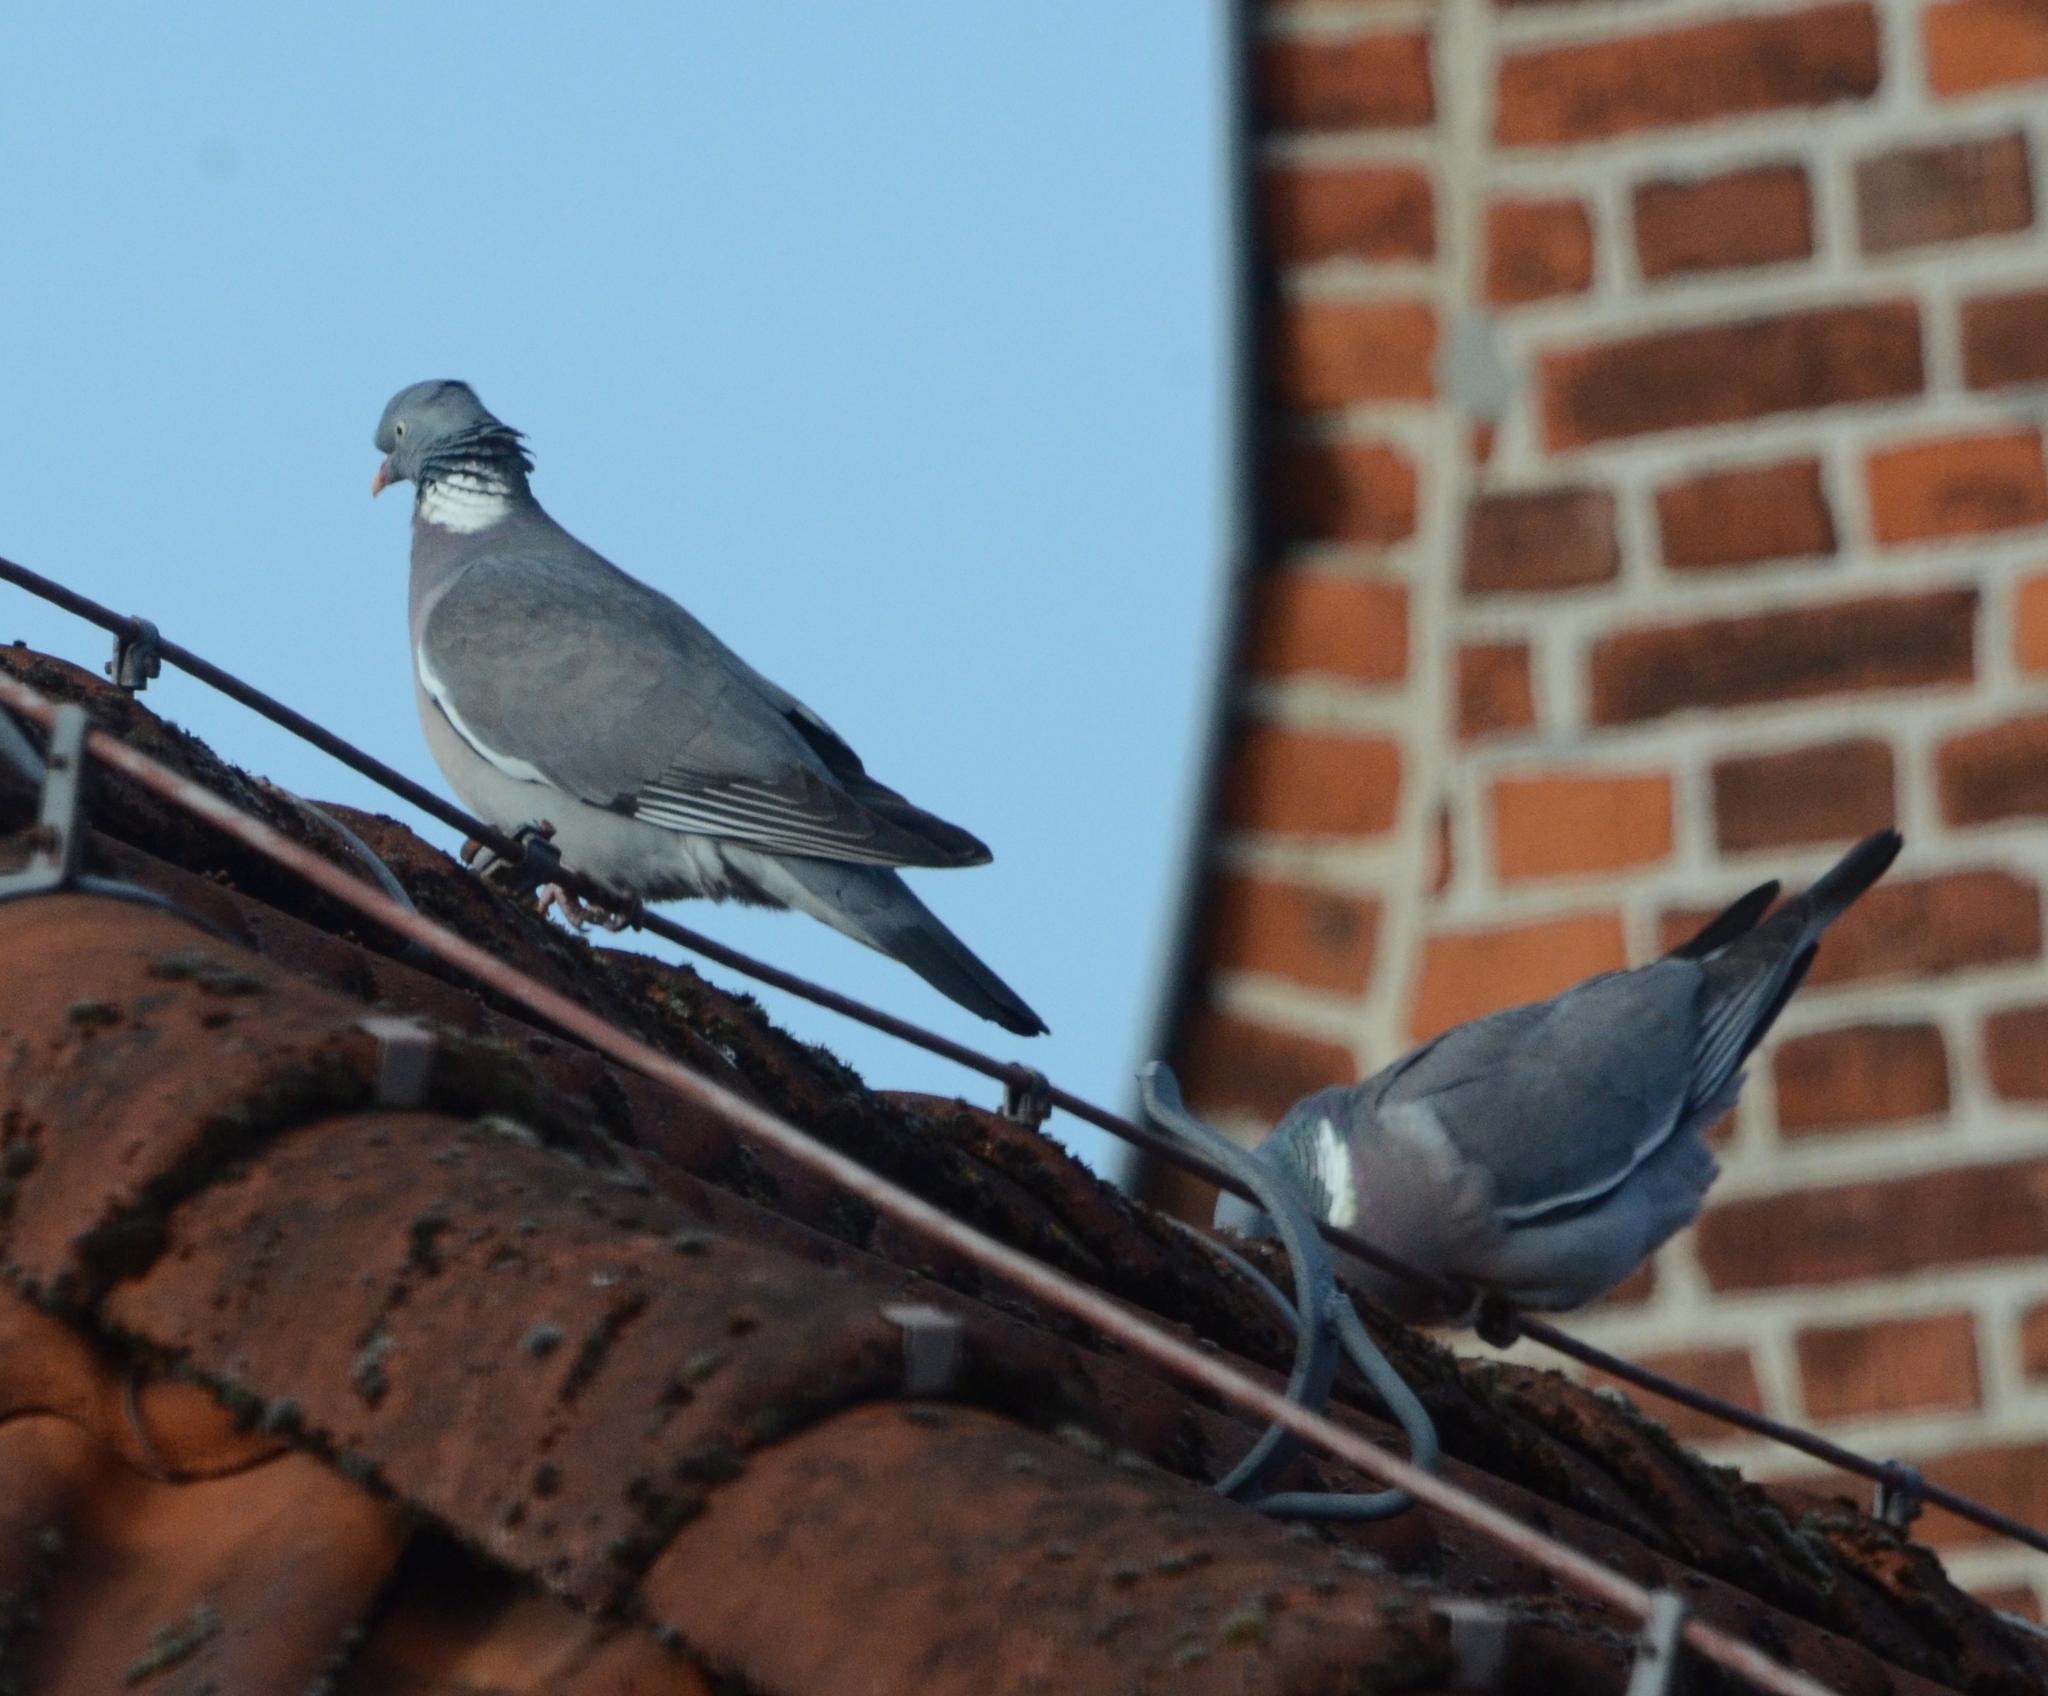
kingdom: Animalia
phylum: Chordata
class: Aves
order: Columbiformes
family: Columbidae
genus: Columba
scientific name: Columba palumbus
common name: Common wood pigeon
